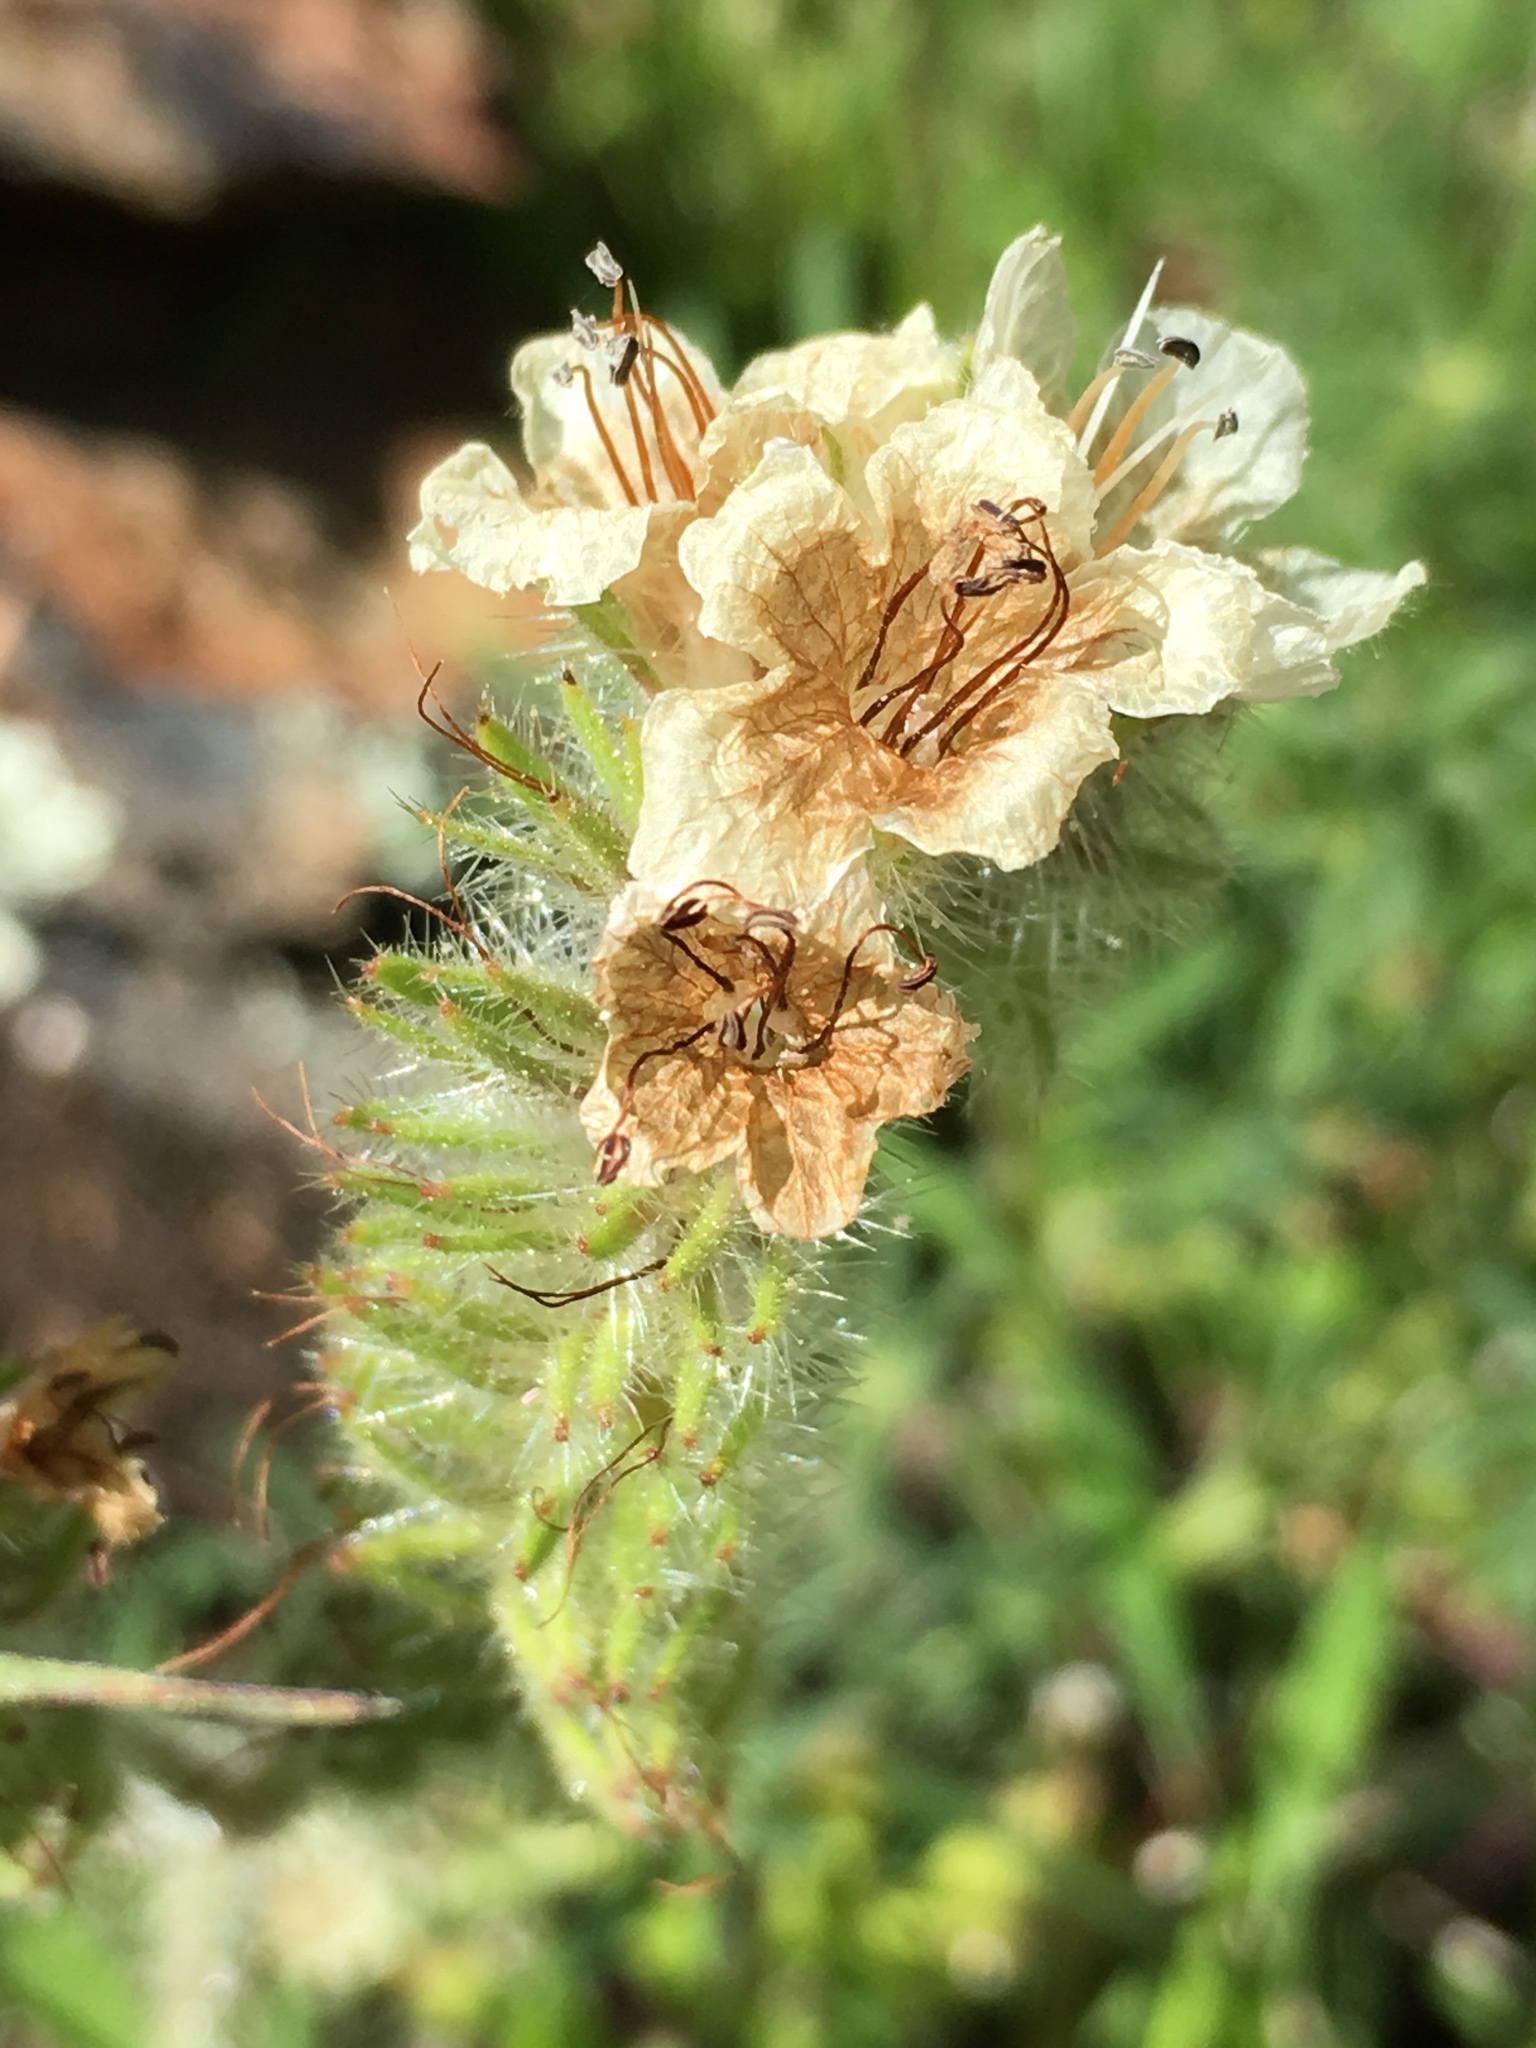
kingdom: Plantae
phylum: Tracheophyta
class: Magnoliopsida
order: Boraginales
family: Hydrophyllaceae
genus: Phacelia
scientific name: Phacelia cicutaria
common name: Caterpillar phacelia
